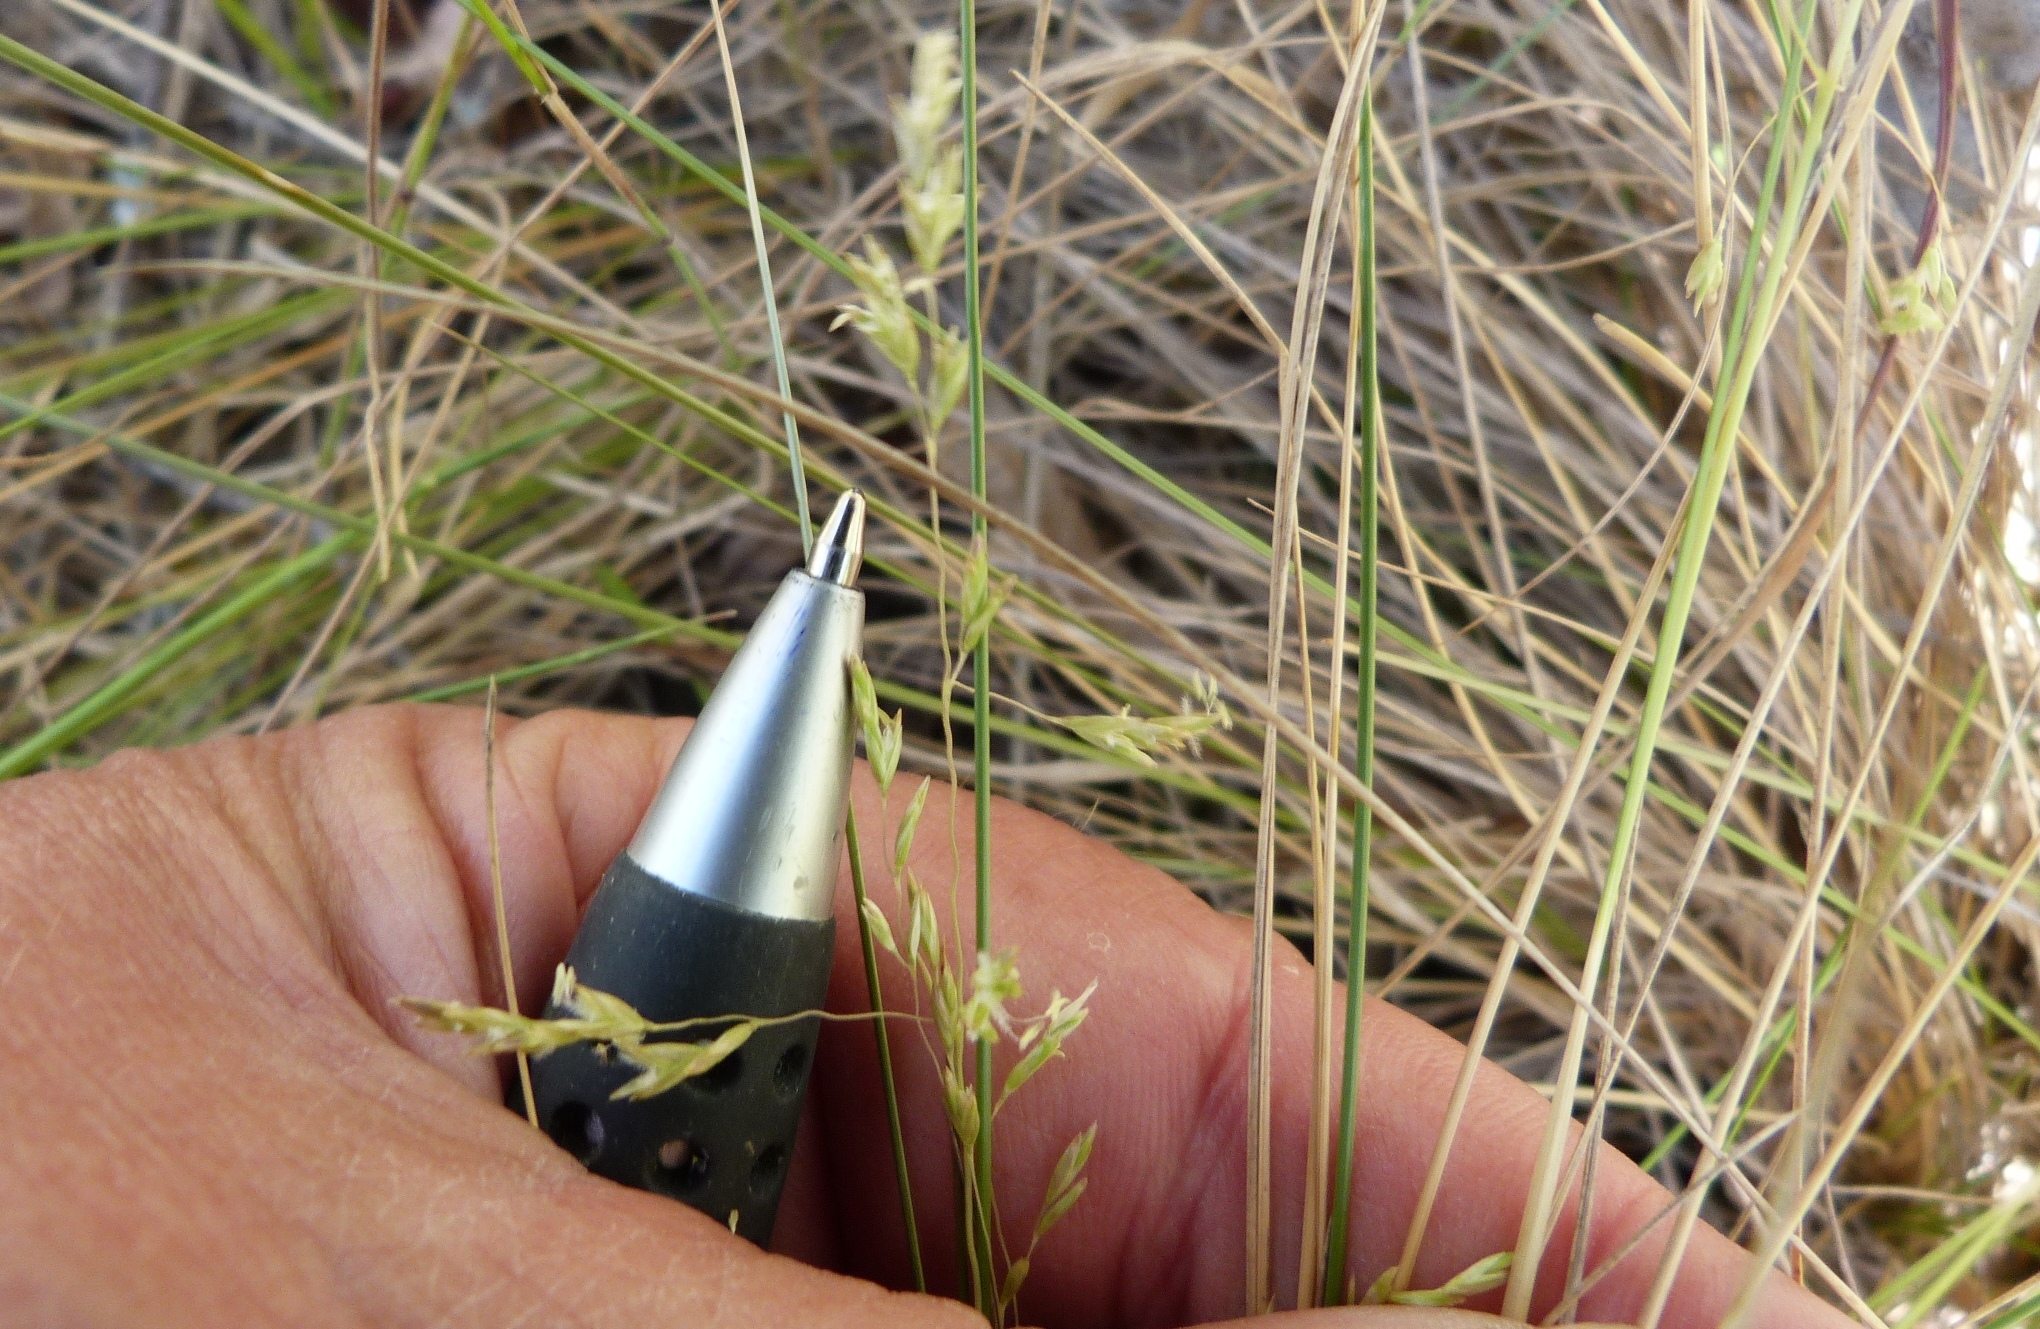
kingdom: Plantae
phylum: Tracheophyta
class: Liliopsida
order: Poales
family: Poaceae
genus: Poa
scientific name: Poa cita
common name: Silver tussock
